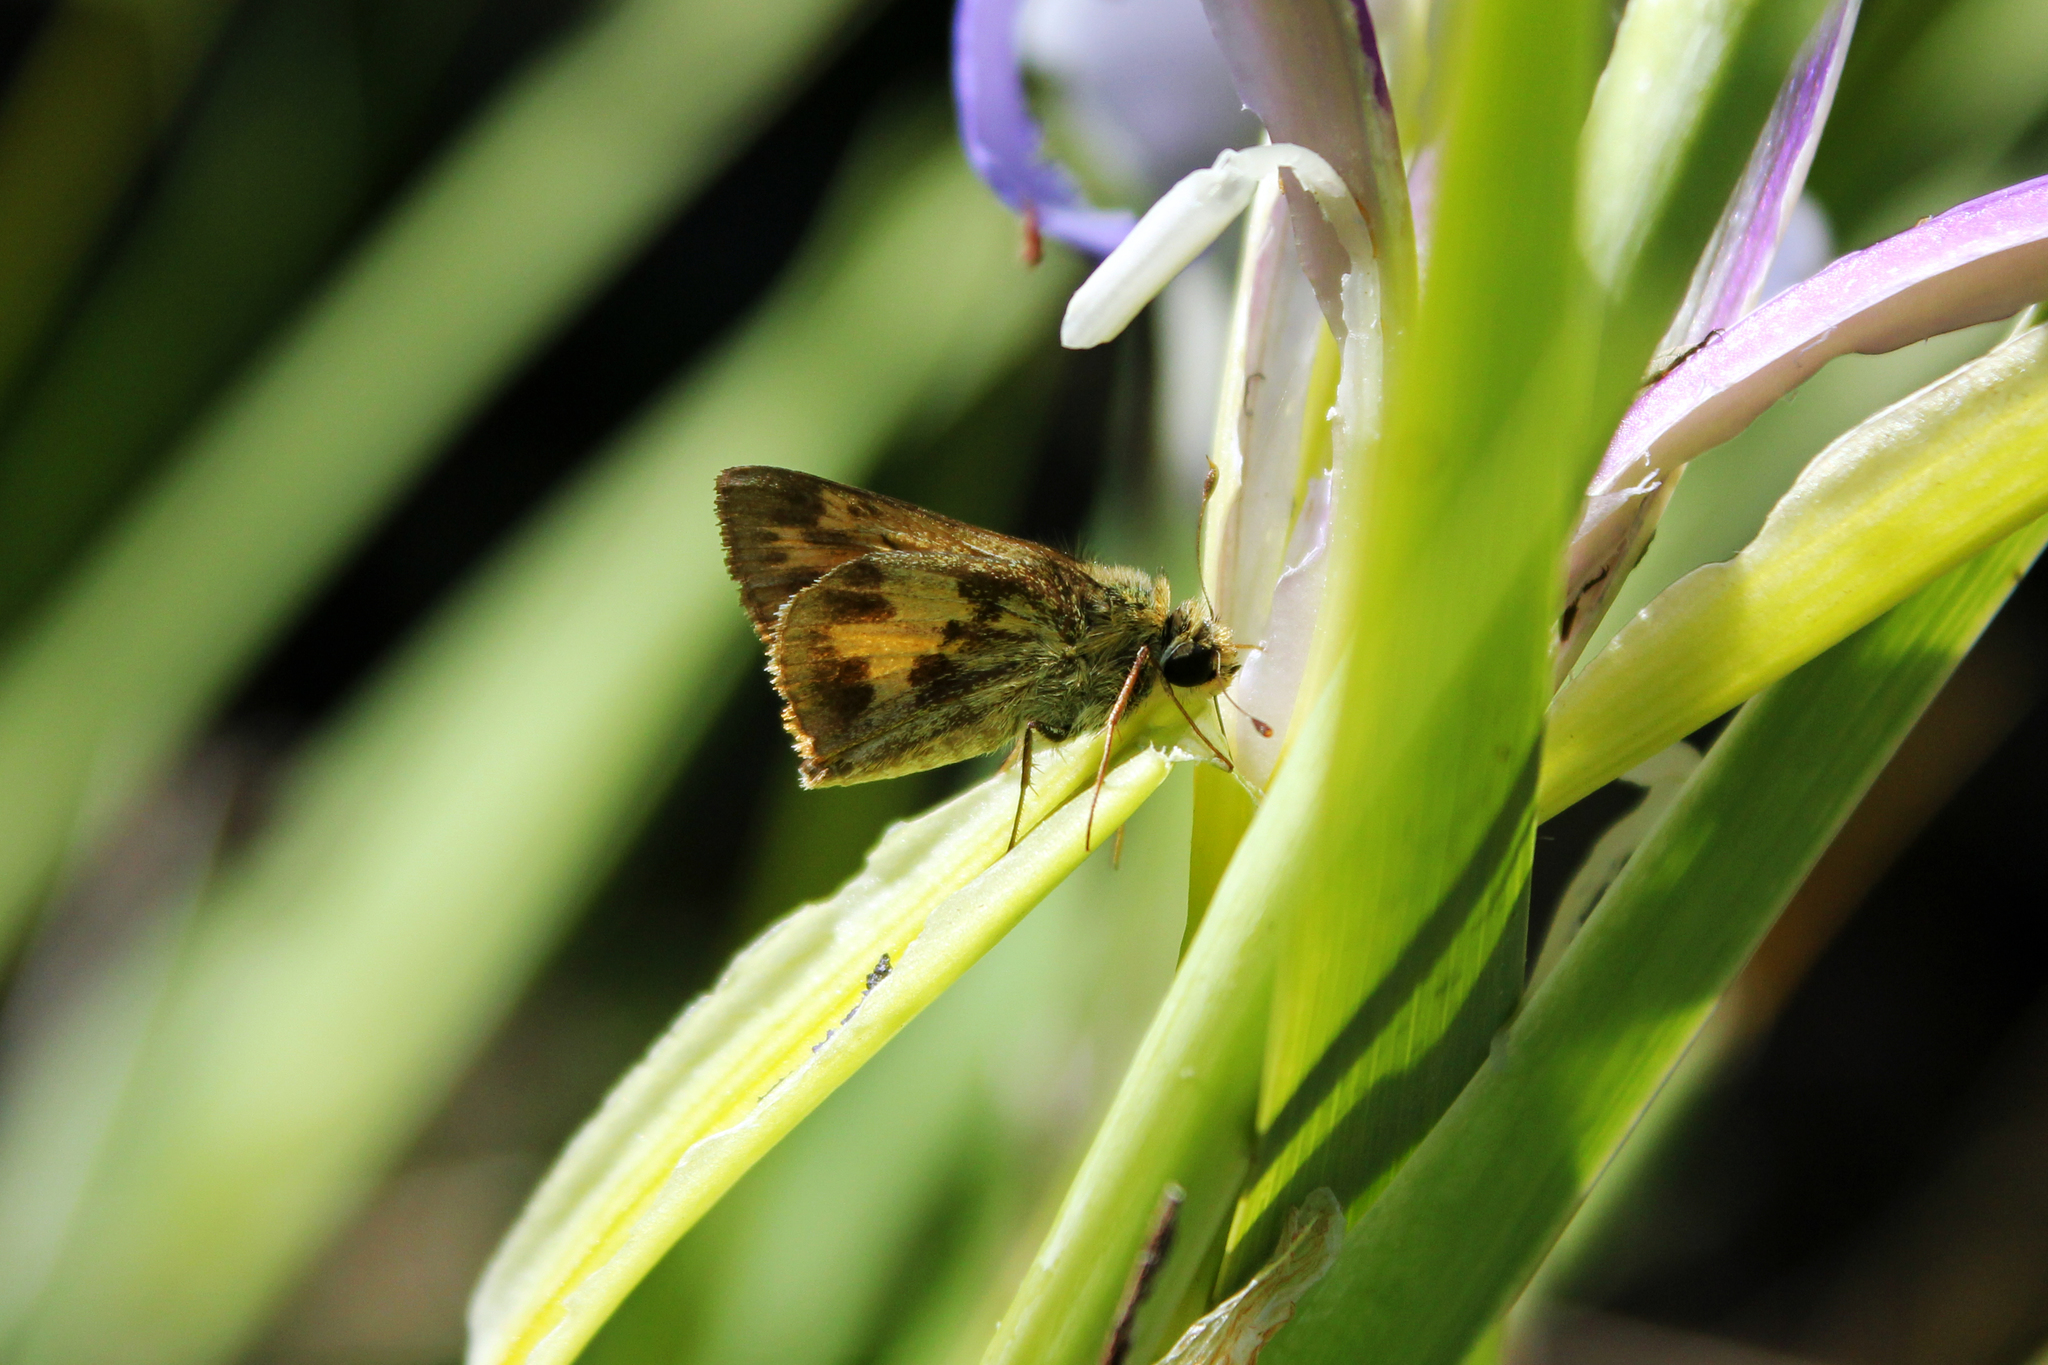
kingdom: Animalia
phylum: Arthropoda
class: Insecta
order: Lepidoptera
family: Hesperiidae
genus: Polites
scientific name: Polites vibex
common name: Whirlabout
